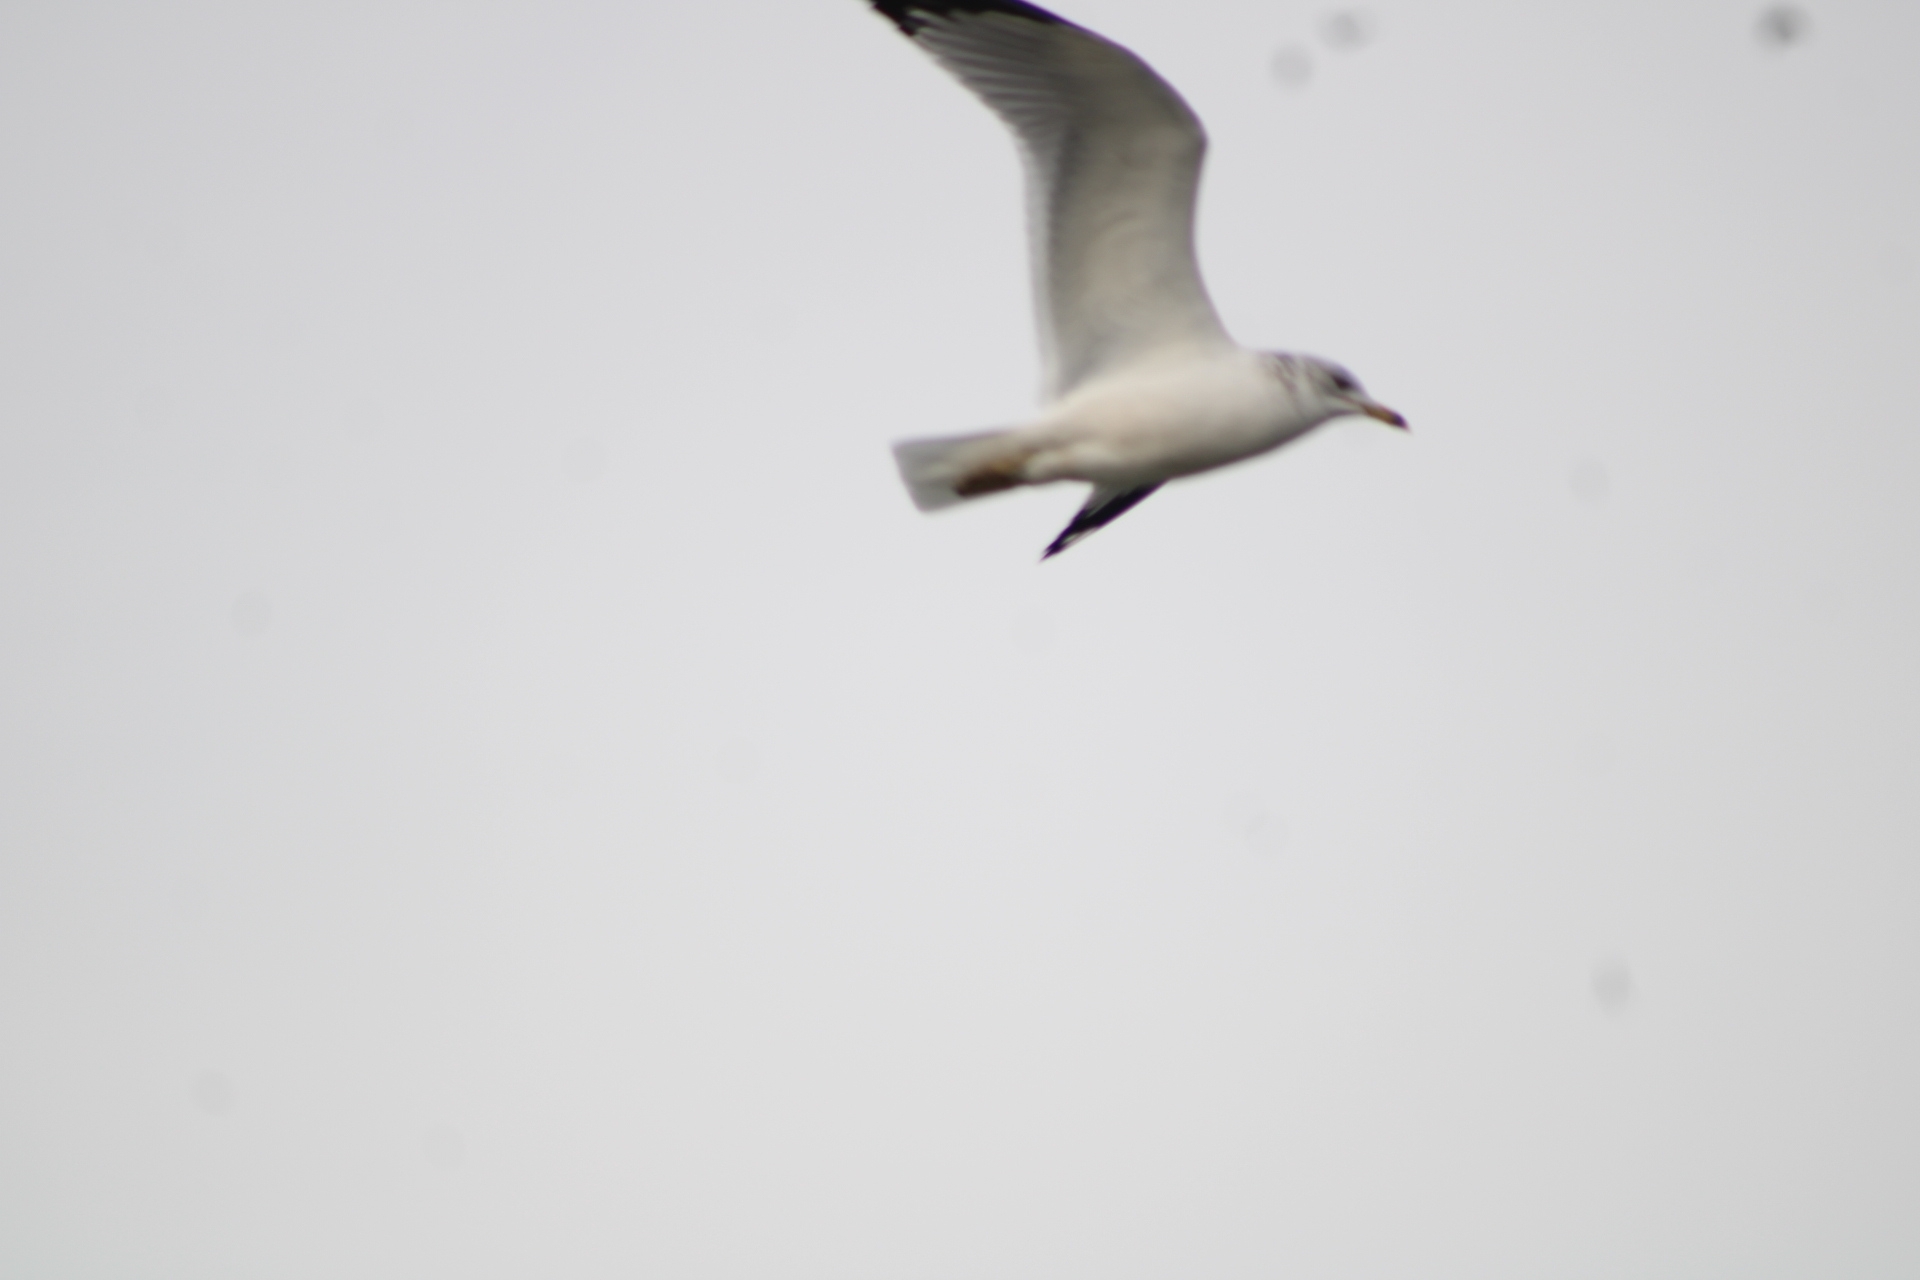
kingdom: Animalia
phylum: Chordata
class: Aves
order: Charadriiformes
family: Laridae
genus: Larus
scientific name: Larus delawarensis
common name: Ring-billed gull
